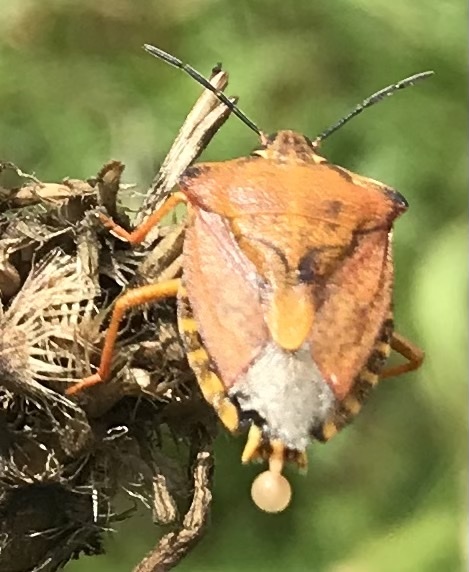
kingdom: Animalia
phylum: Arthropoda
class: Insecta
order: Hemiptera
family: Pentatomidae
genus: Carpocoris
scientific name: Carpocoris purpureipennis
